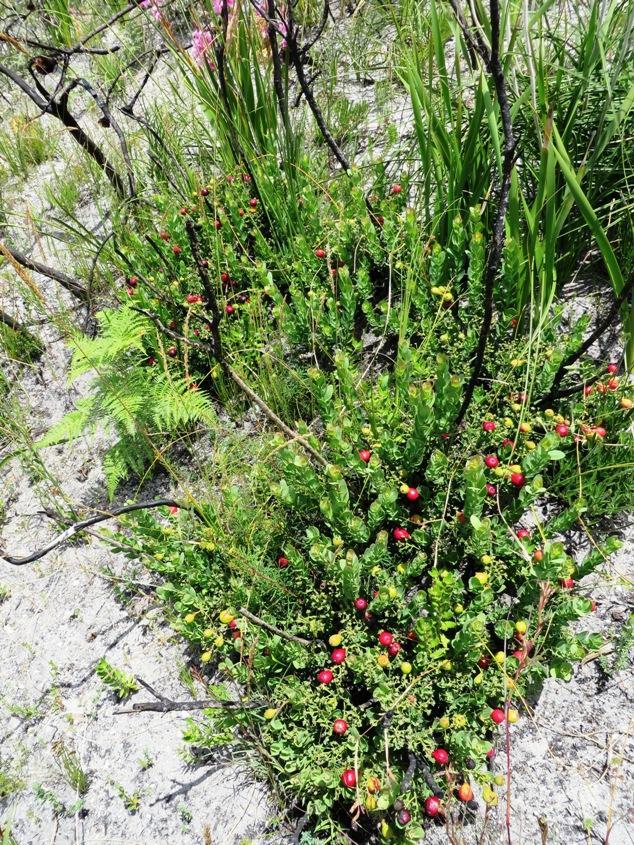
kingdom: Plantae
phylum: Tracheophyta
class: Magnoliopsida
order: Santalales
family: Santalaceae
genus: Osyris
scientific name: Osyris speciosa
